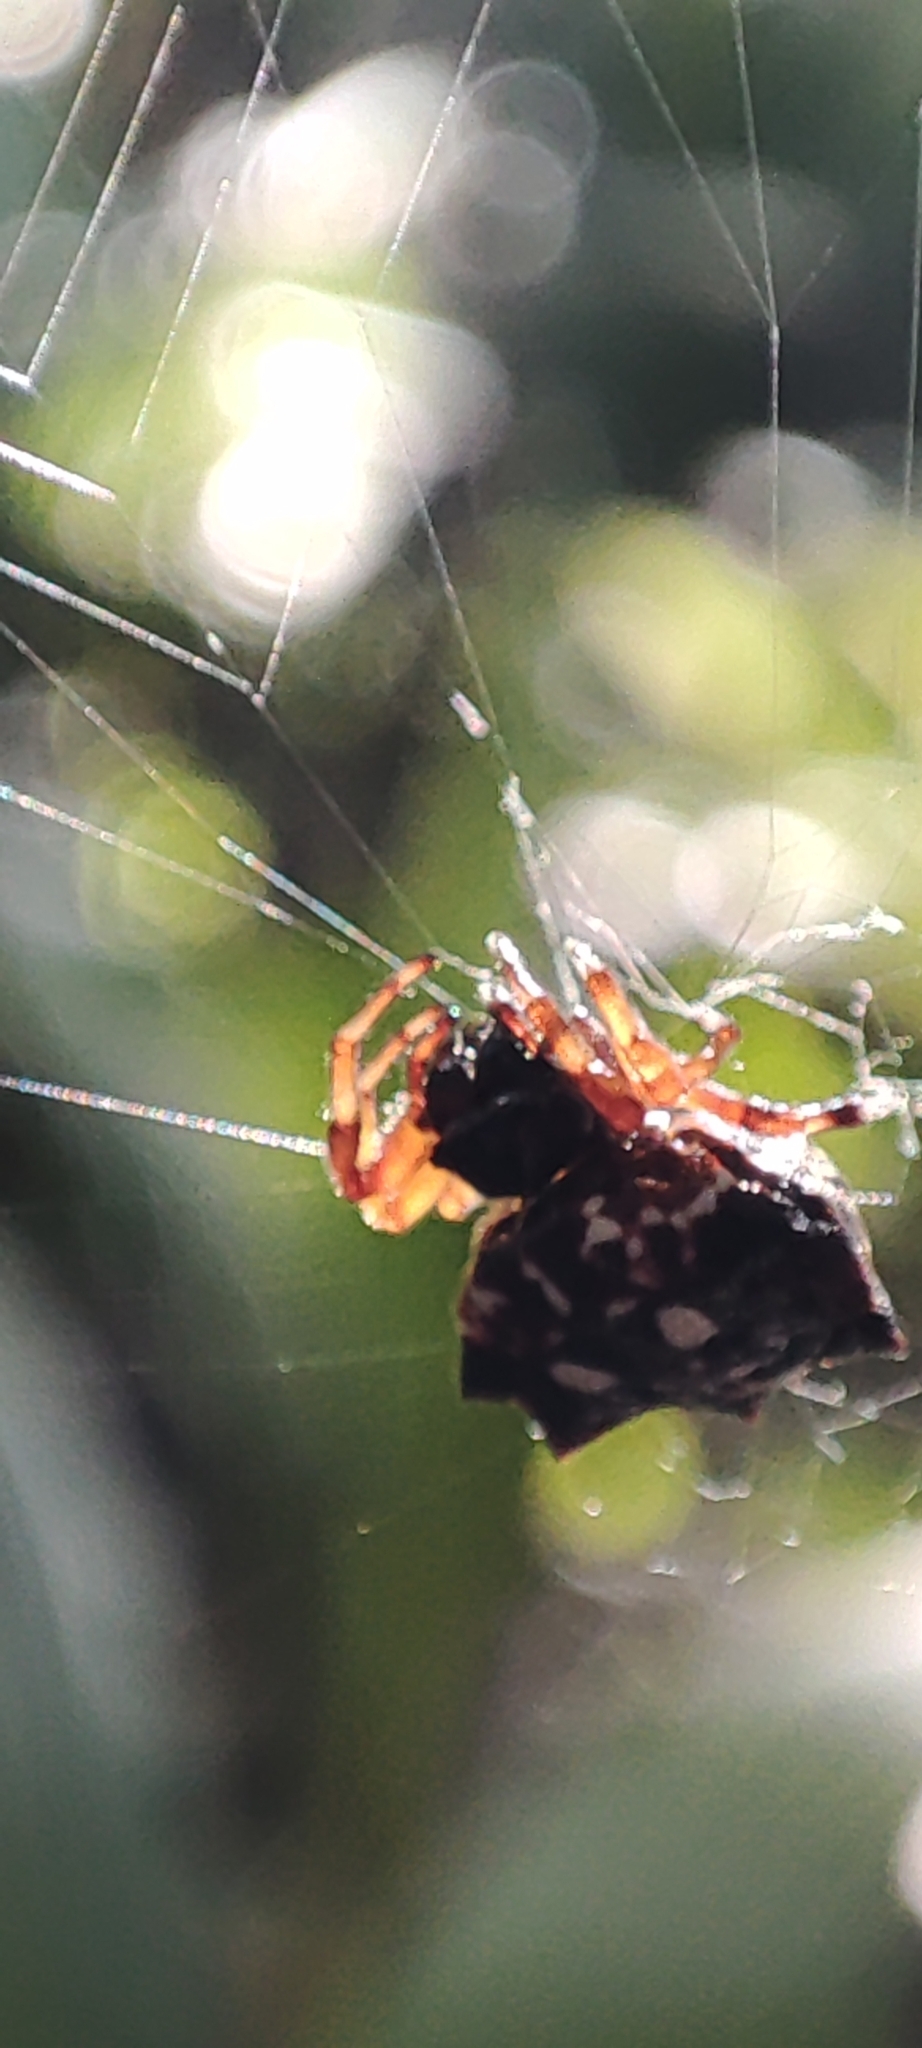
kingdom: Animalia
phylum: Arthropoda
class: Arachnida
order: Araneae
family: Araneidae
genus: Thelacantha
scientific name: Thelacantha brevispina
